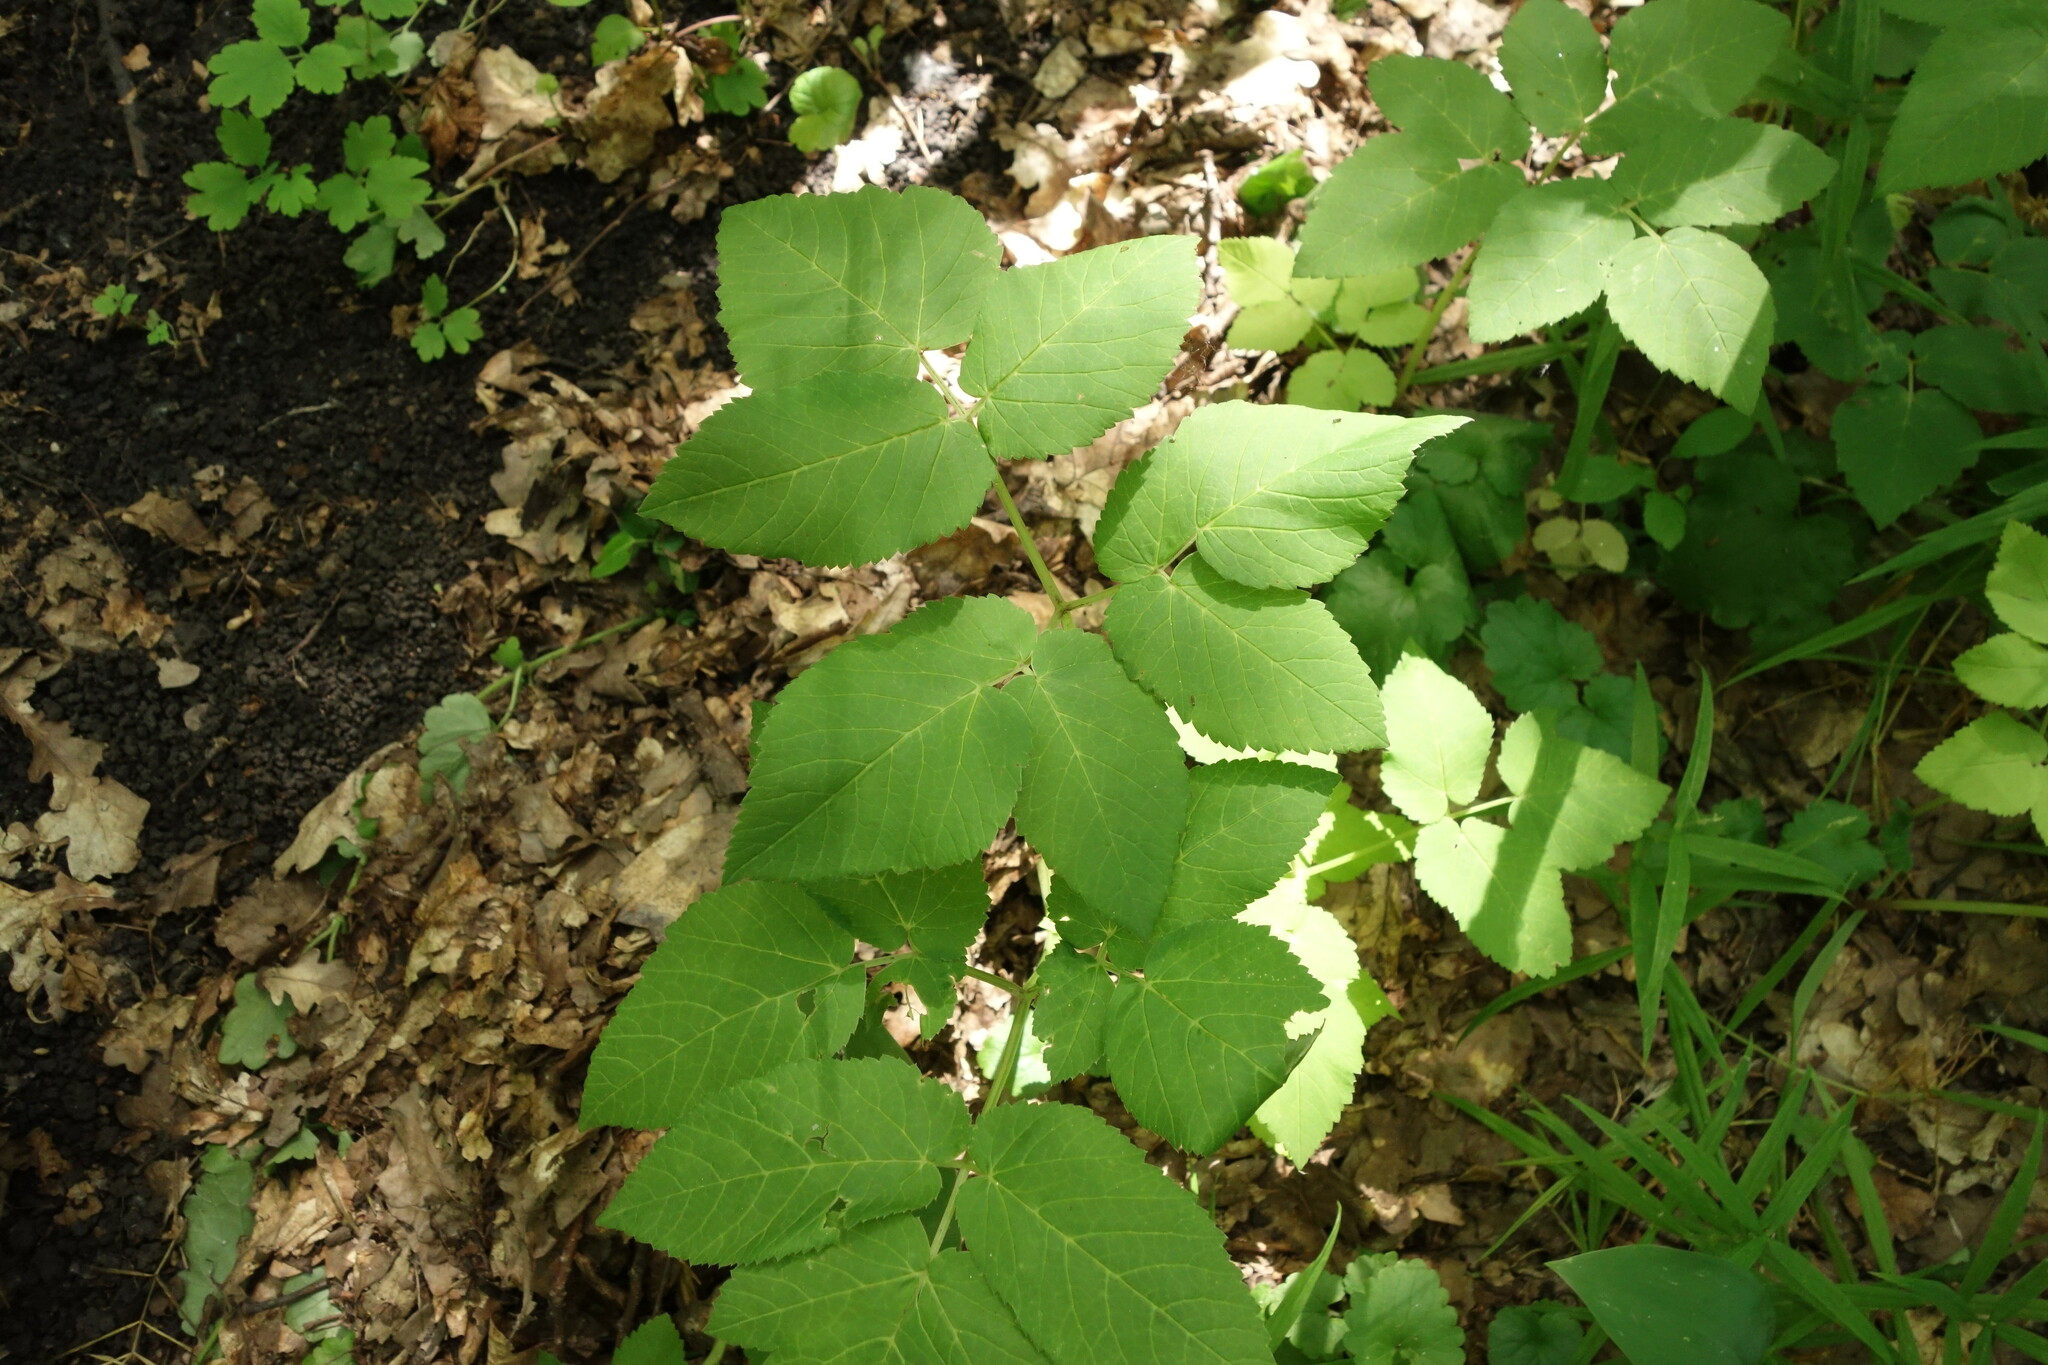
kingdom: Plantae
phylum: Tracheophyta
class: Magnoliopsida
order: Apiales
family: Apiaceae
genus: Aegopodium
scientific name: Aegopodium podagraria
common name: Ground-elder
